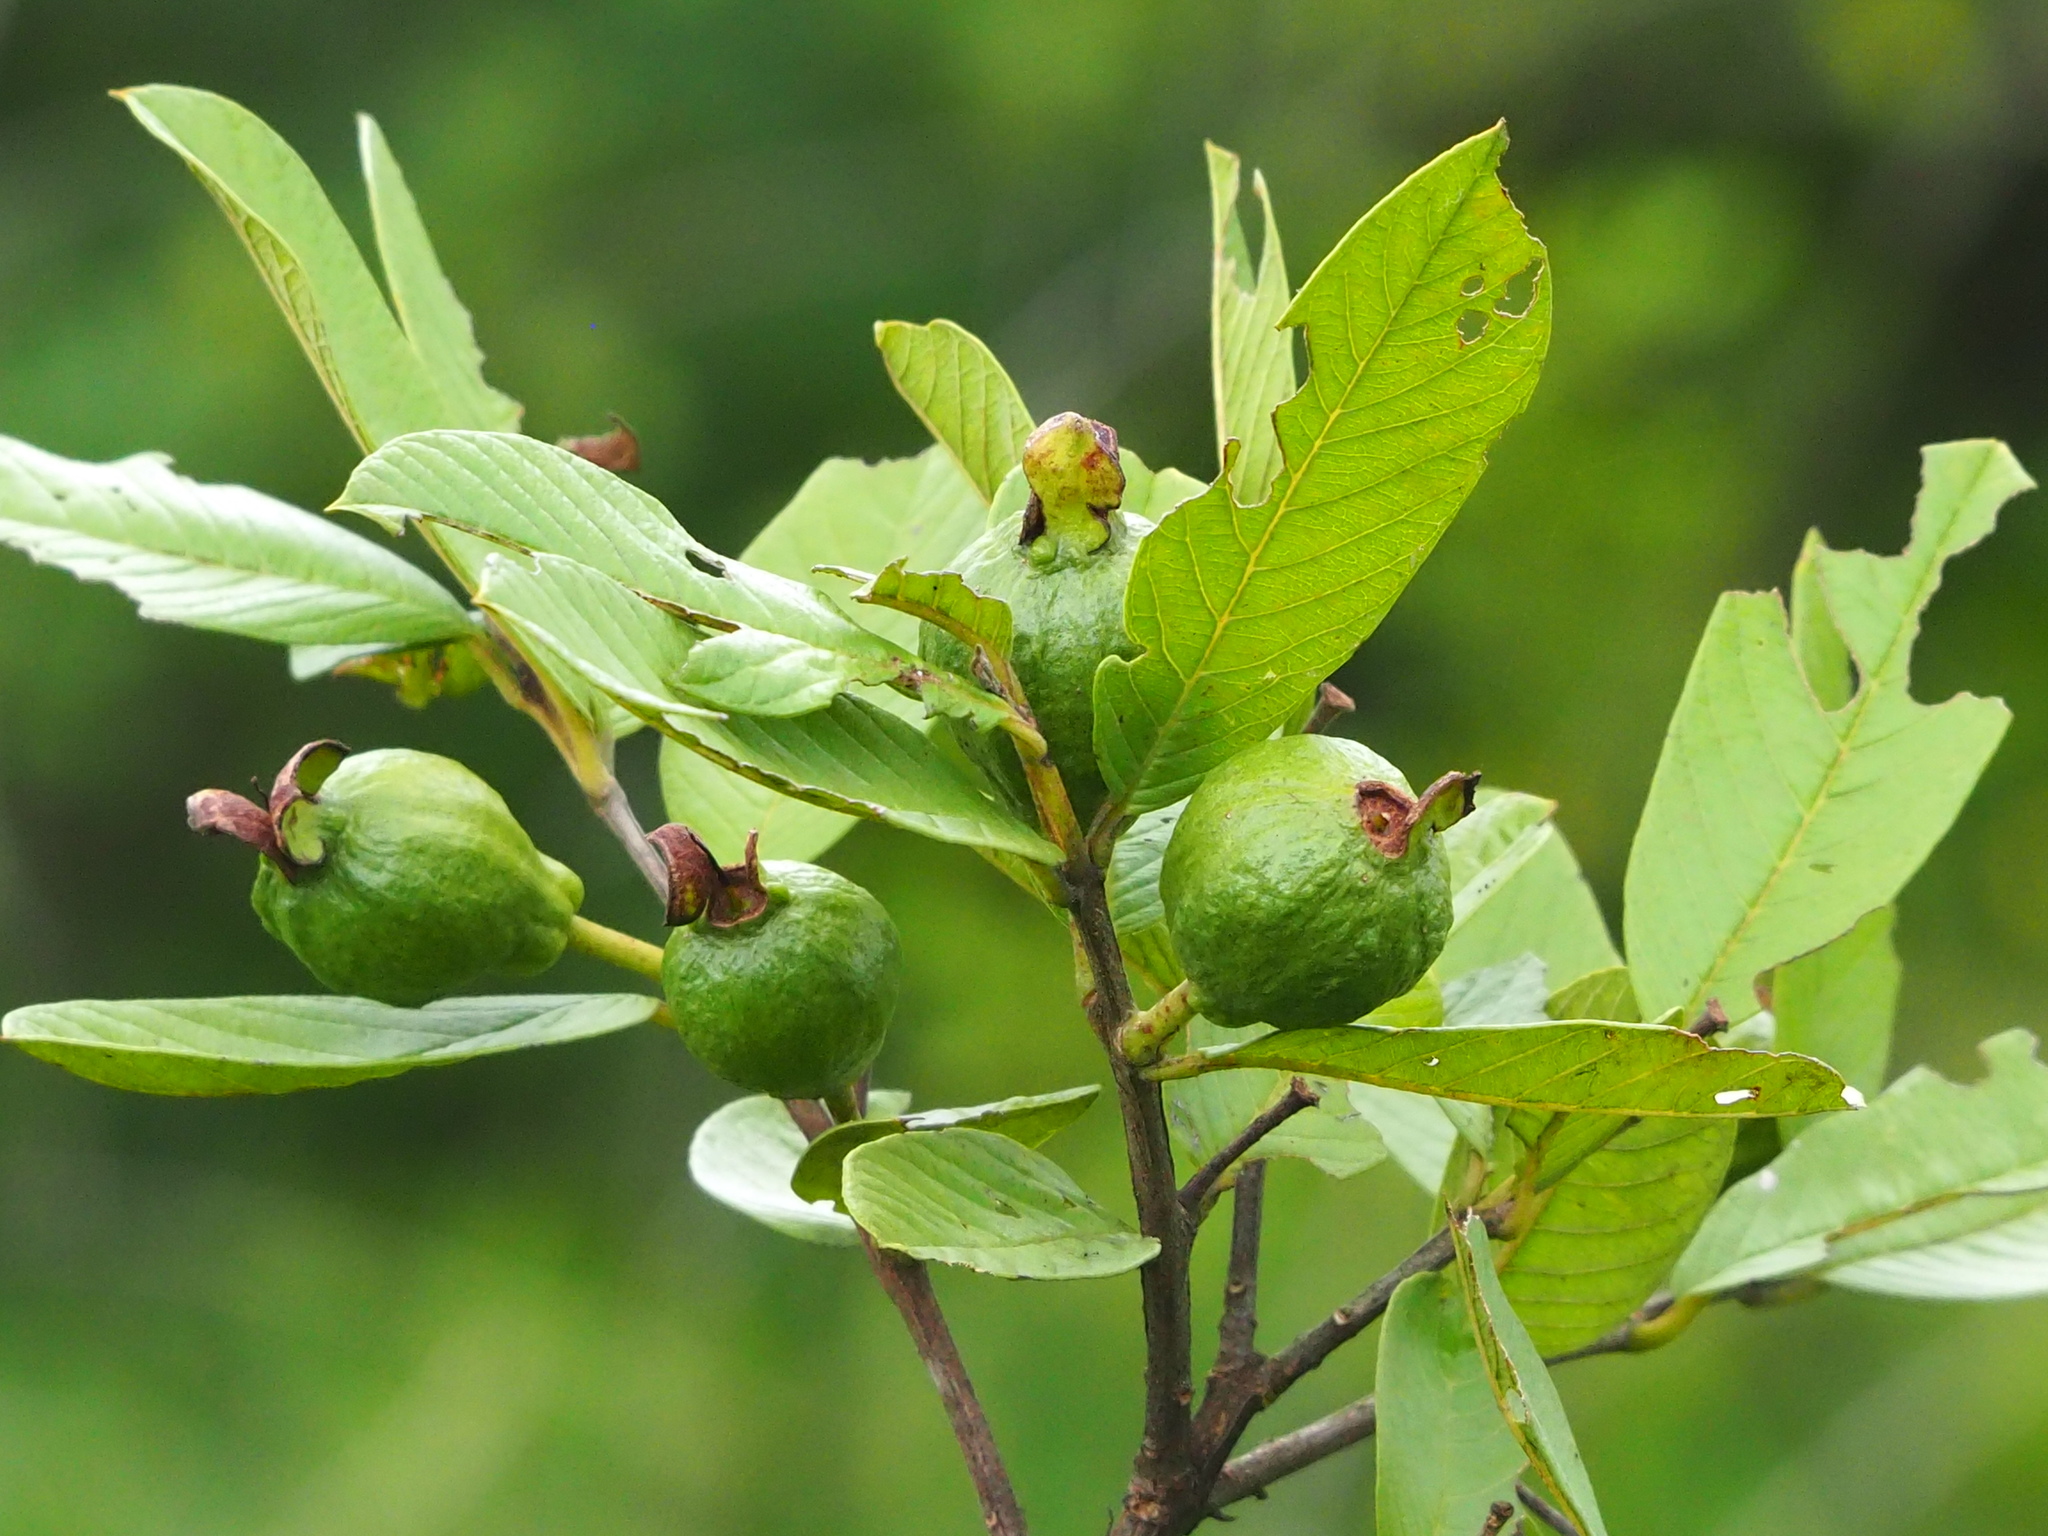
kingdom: Plantae
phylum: Tracheophyta
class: Magnoliopsida
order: Myrtales
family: Myrtaceae
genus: Psidium
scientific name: Psidium guajava
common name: Guava
